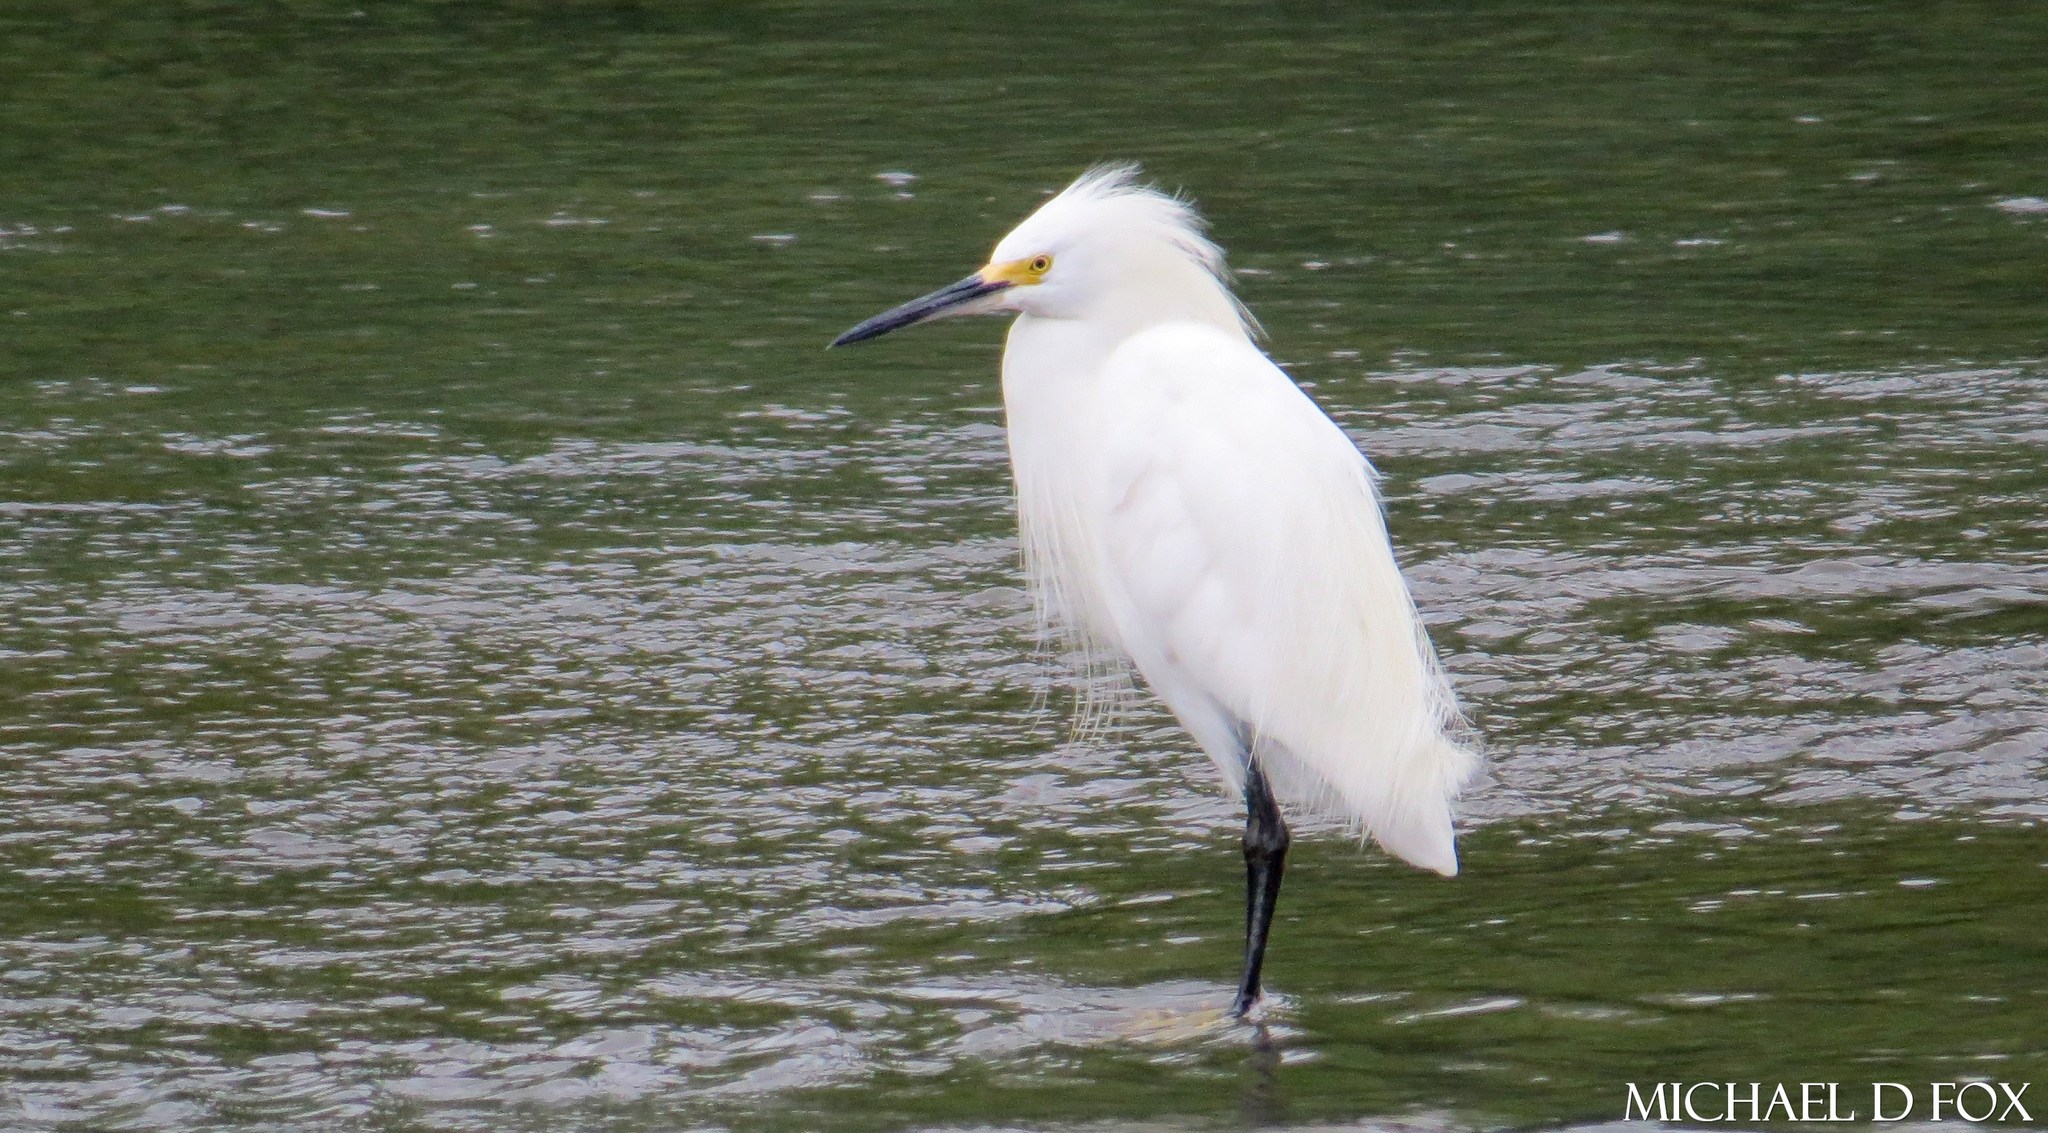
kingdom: Animalia
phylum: Chordata
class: Aves
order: Pelecaniformes
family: Ardeidae
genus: Egretta
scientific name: Egretta thula
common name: Snowy egret
